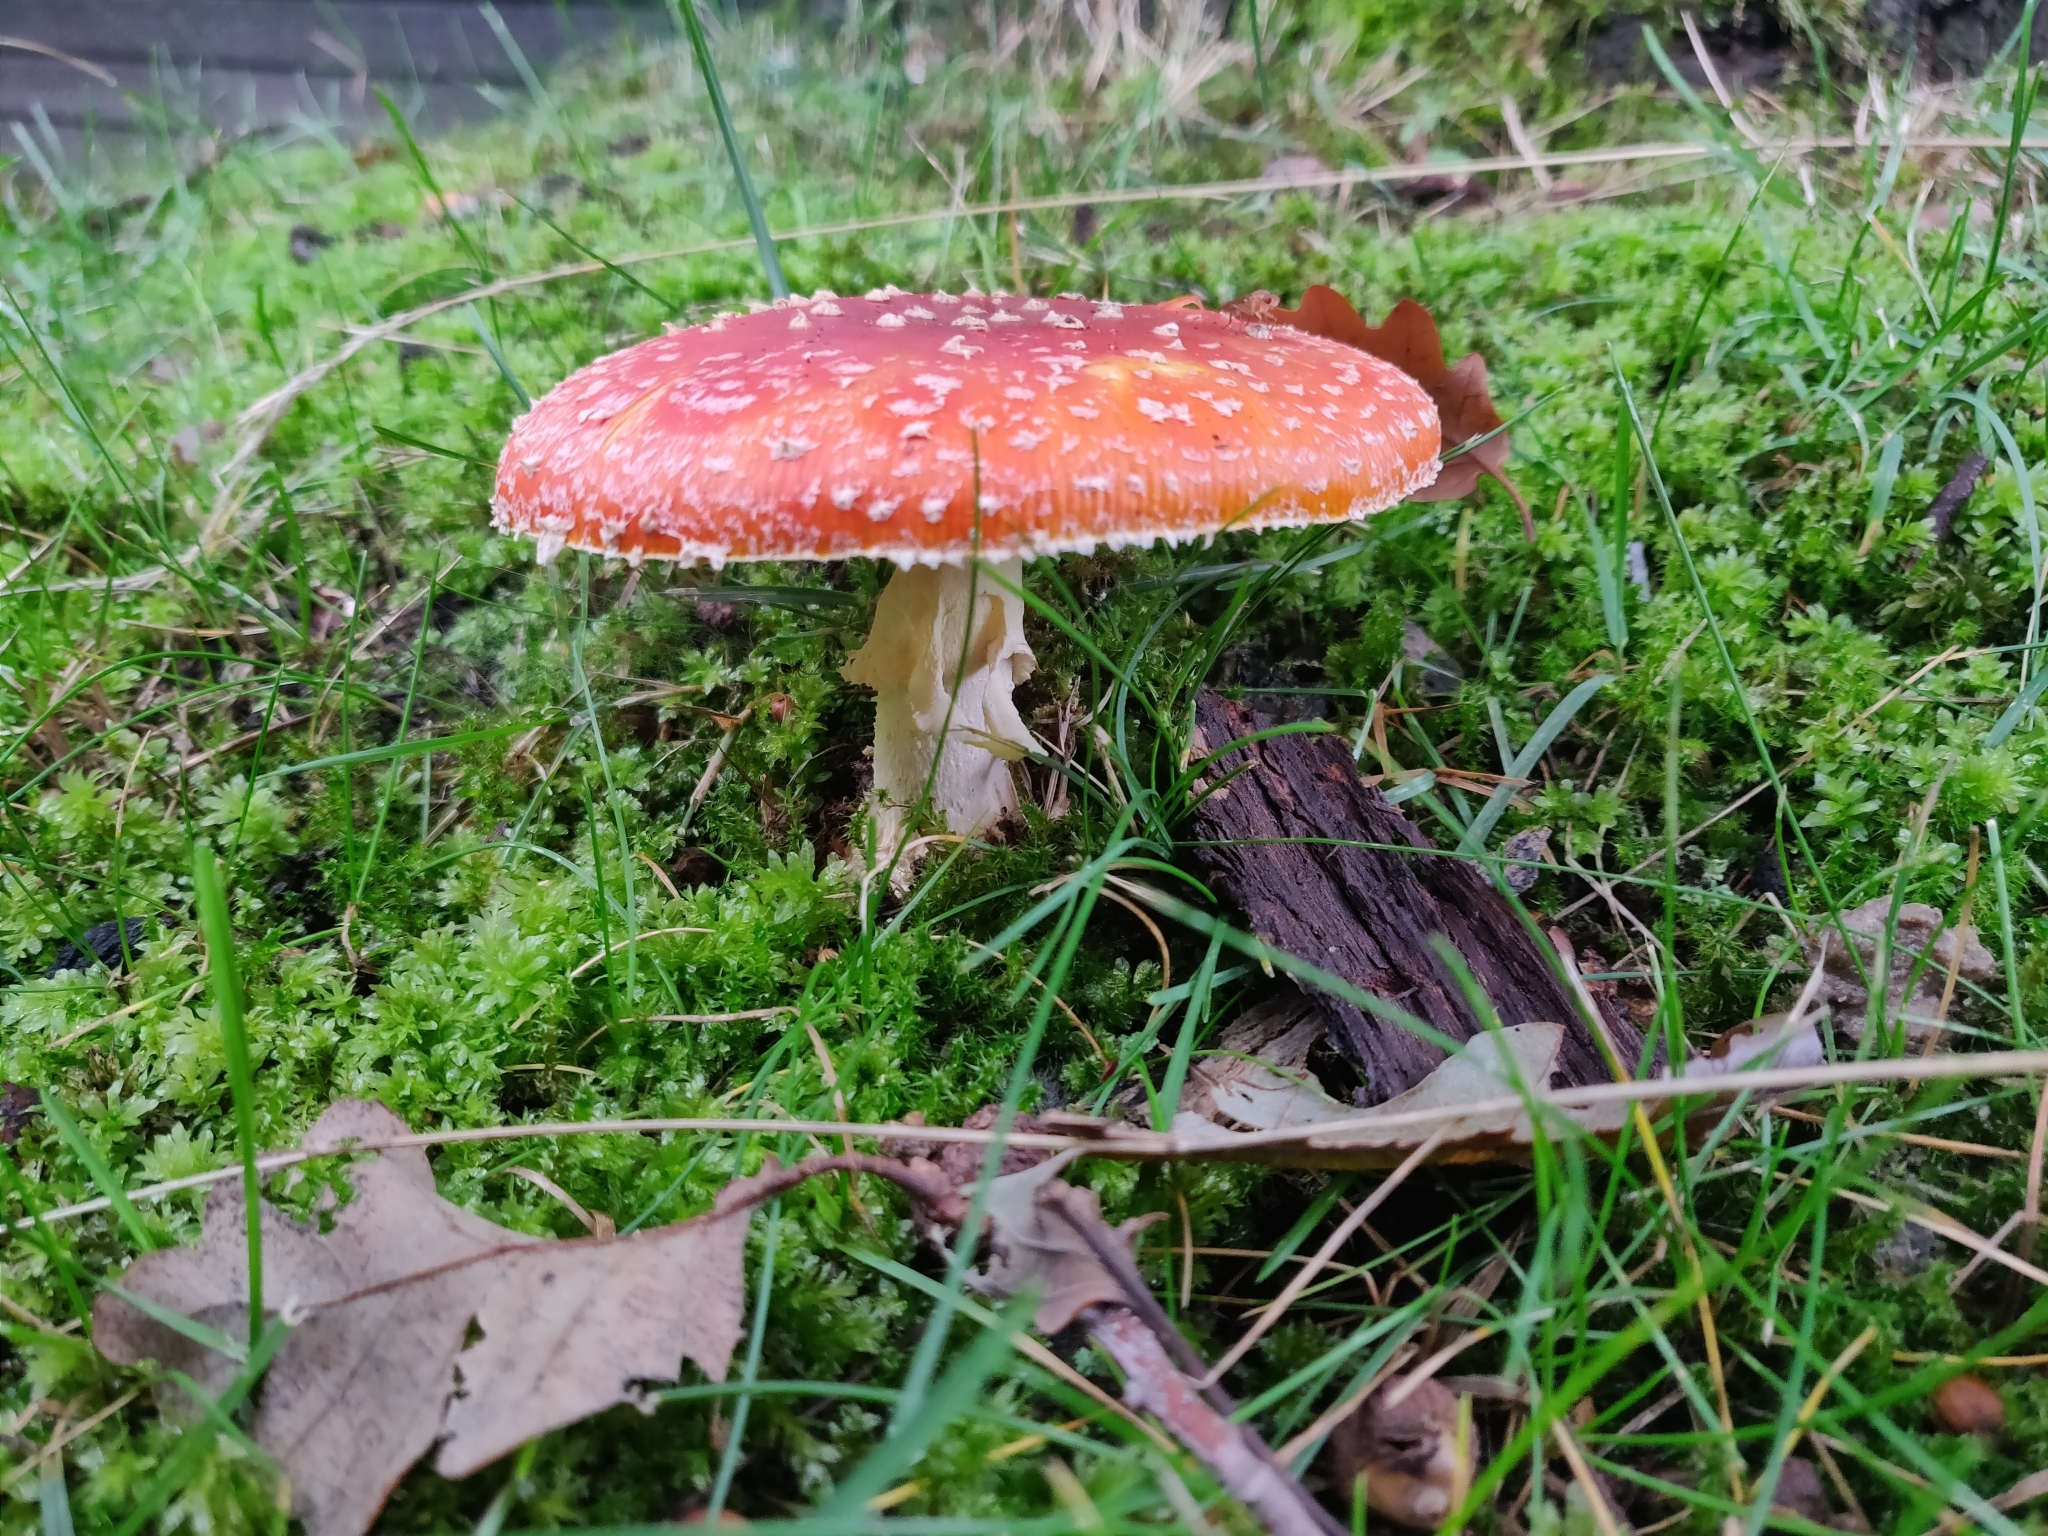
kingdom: Fungi
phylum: Basidiomycota
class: Agaricomycetes
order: Agaricales
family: Amanitaceae
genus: Amanita
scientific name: Amanita muscaria
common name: Fly agaric
